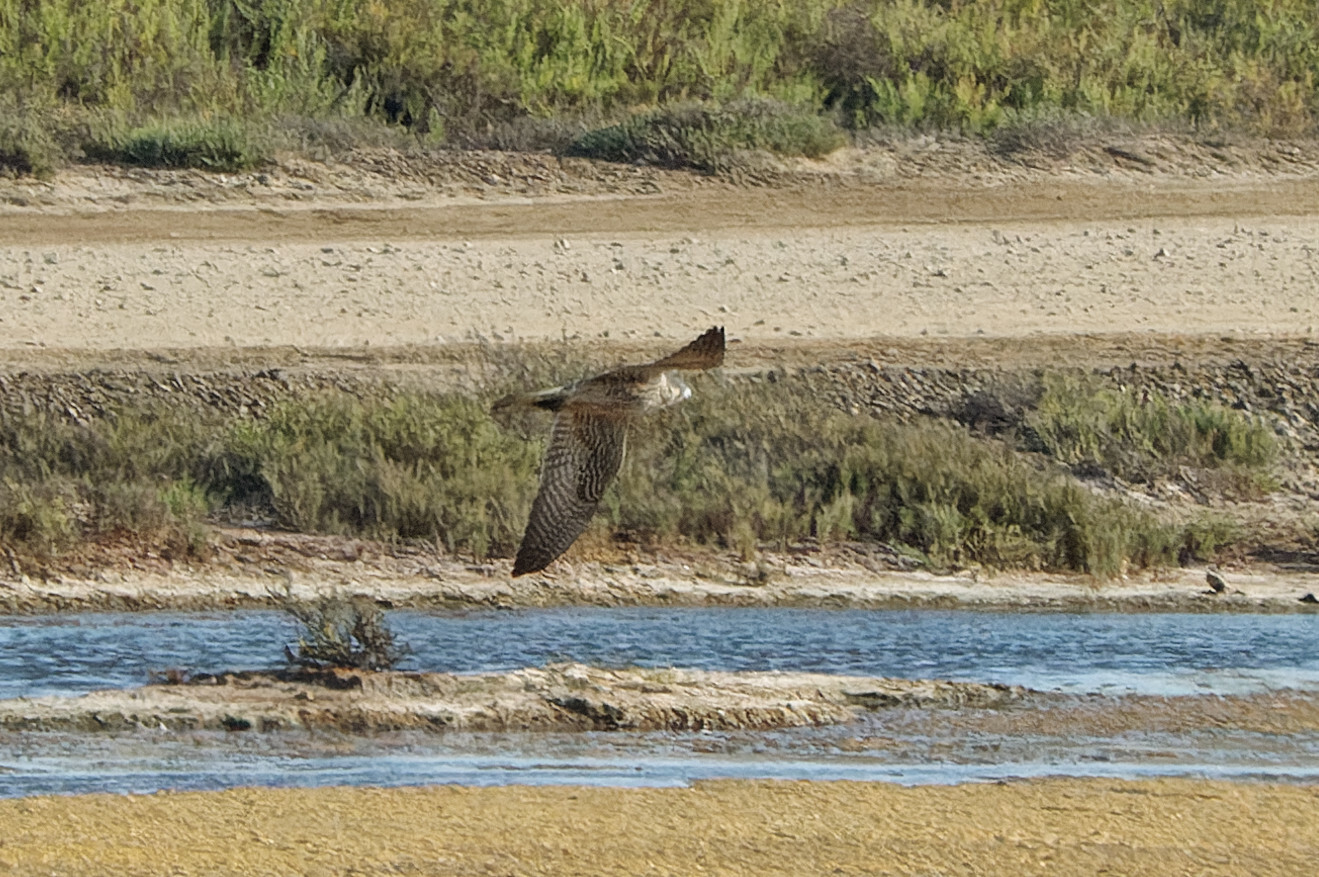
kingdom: Animalia
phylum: Chordata
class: Aves
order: Falconiformes
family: Falconidae
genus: Falco
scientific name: Falco peregrinus
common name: Peregrine falcon
